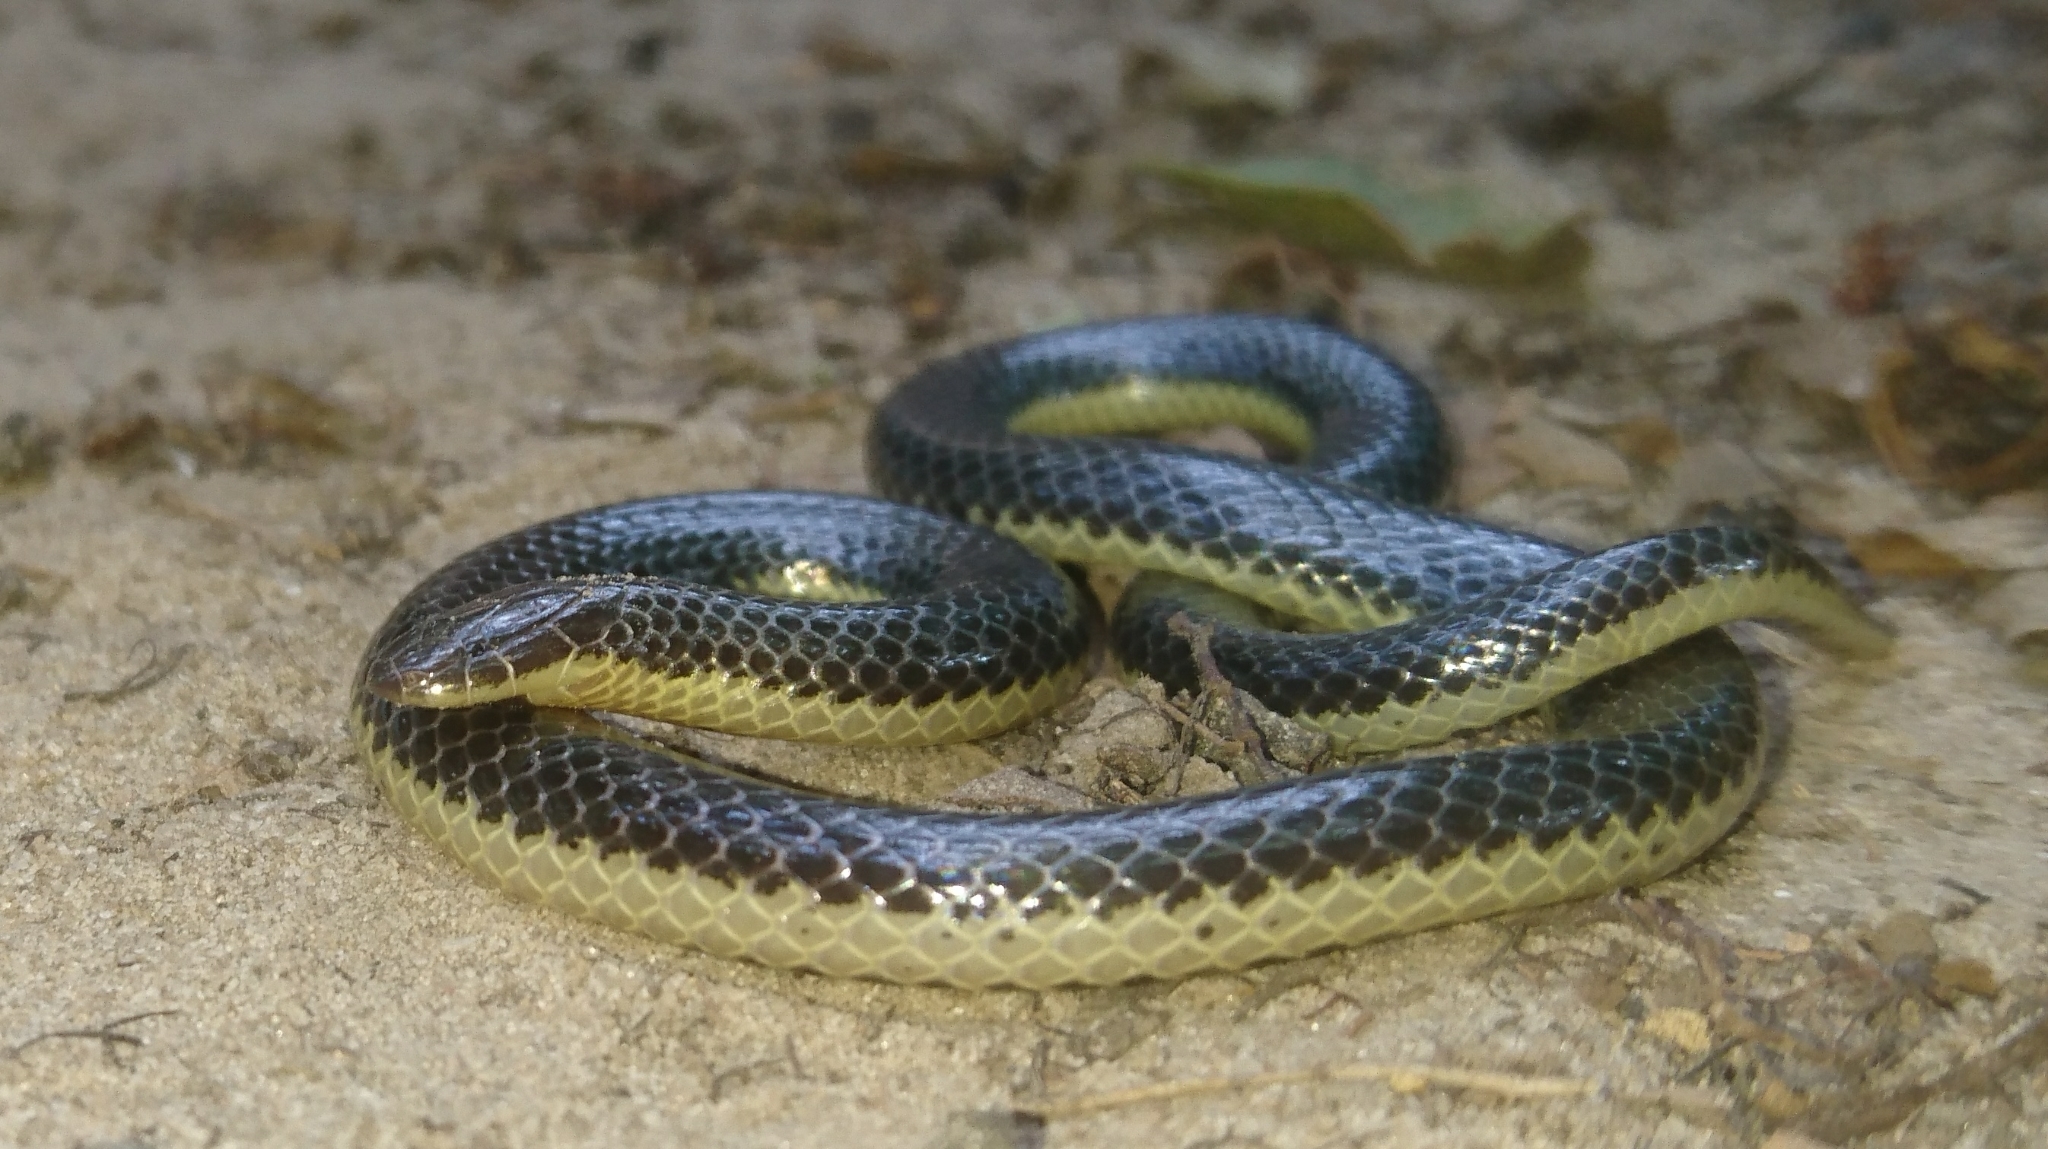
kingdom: Animalia
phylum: Chordata
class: Squamata
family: Atractaspididae
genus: Amblyodipsas
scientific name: Amblyodipsas microphthalma
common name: Eastern purple-glossed snake
